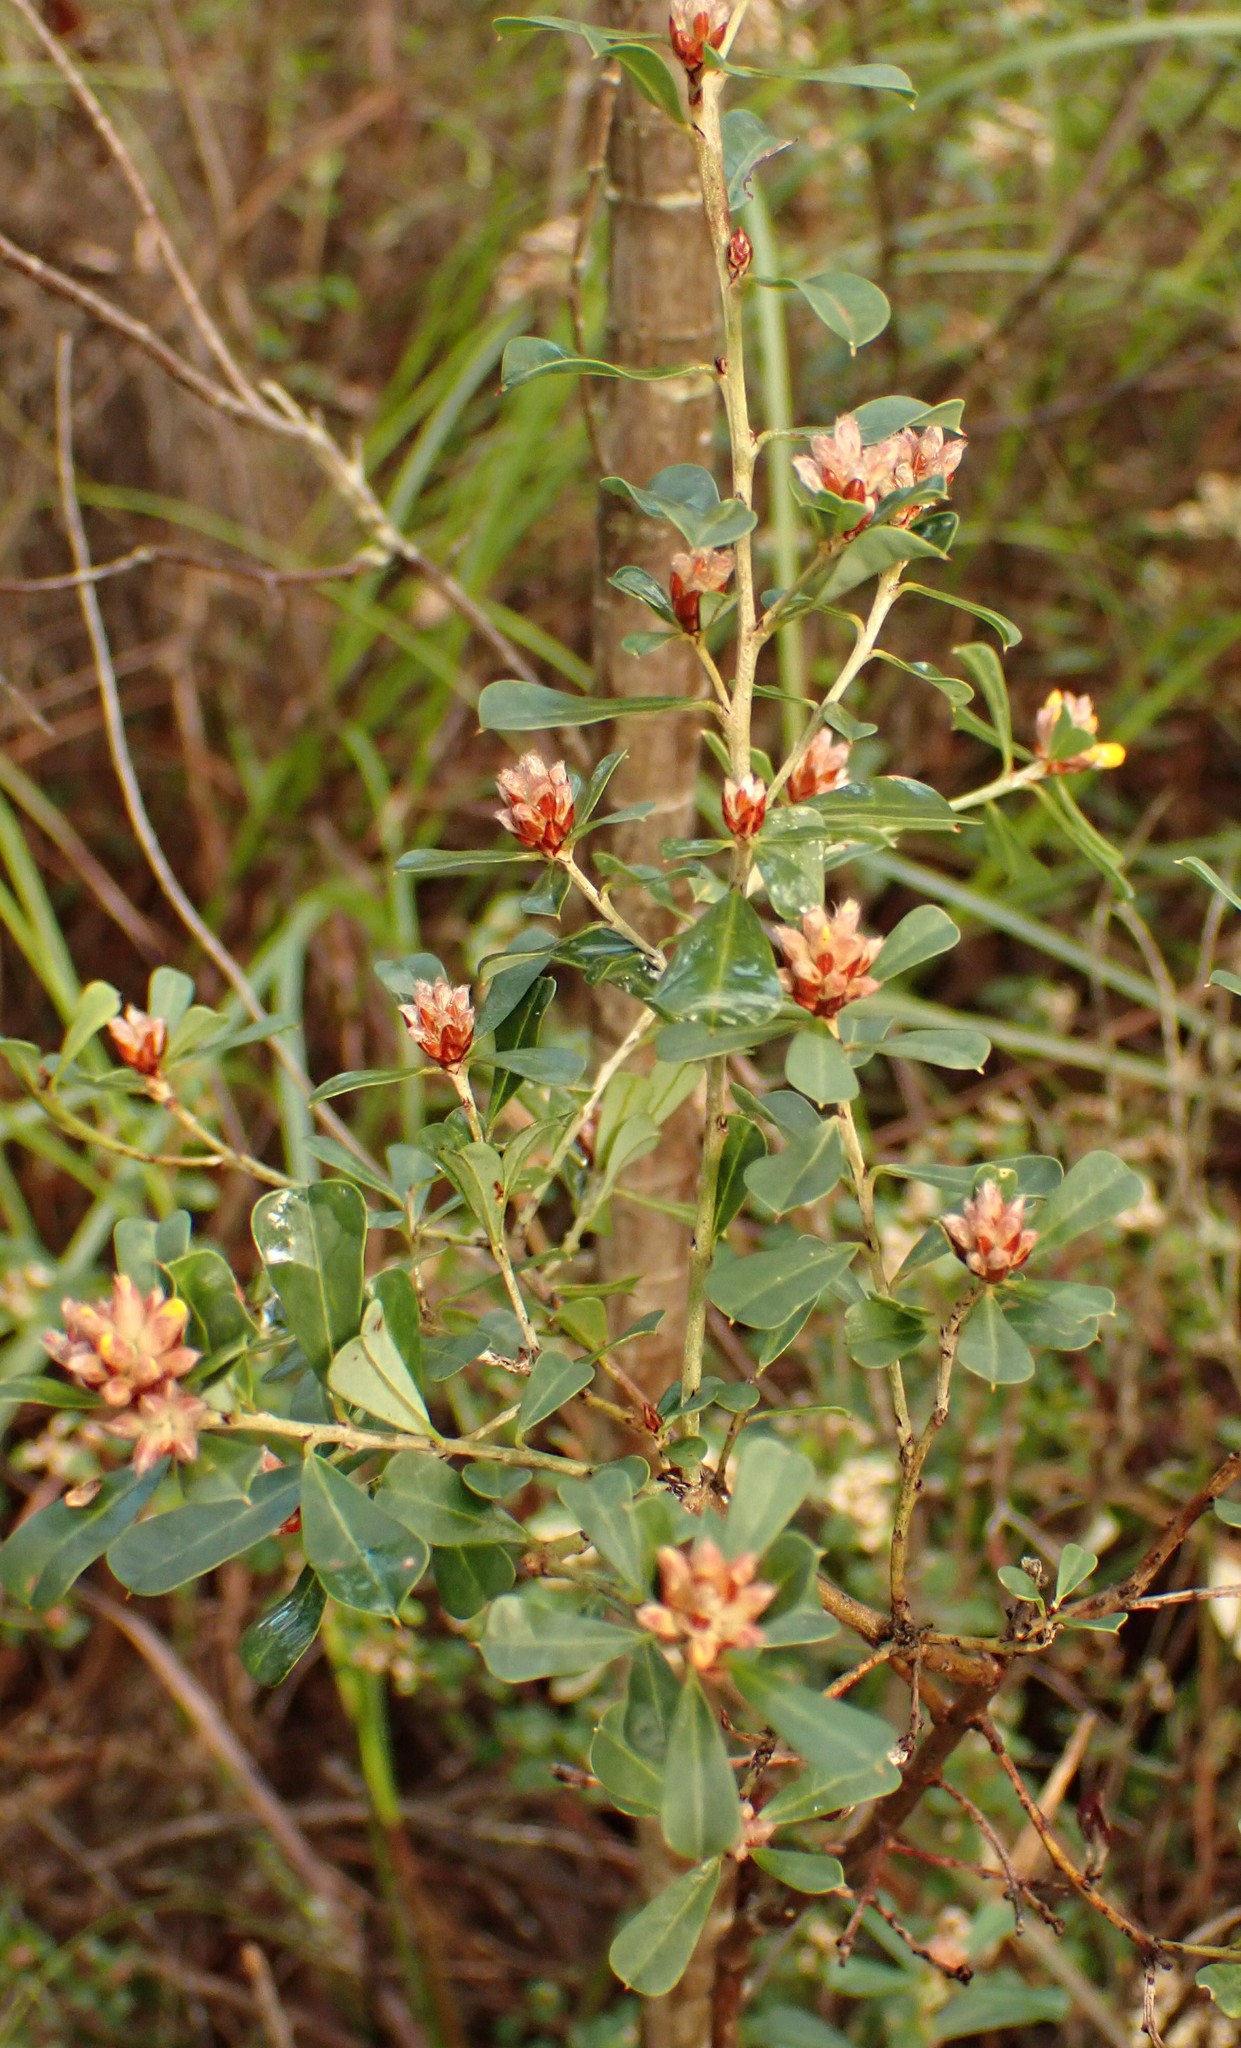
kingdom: Plantae
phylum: Tracheophyta
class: Magnoliopsida
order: Fabales
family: Fabaceae
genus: Pultenaea
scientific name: Pultenaea daphnoides
